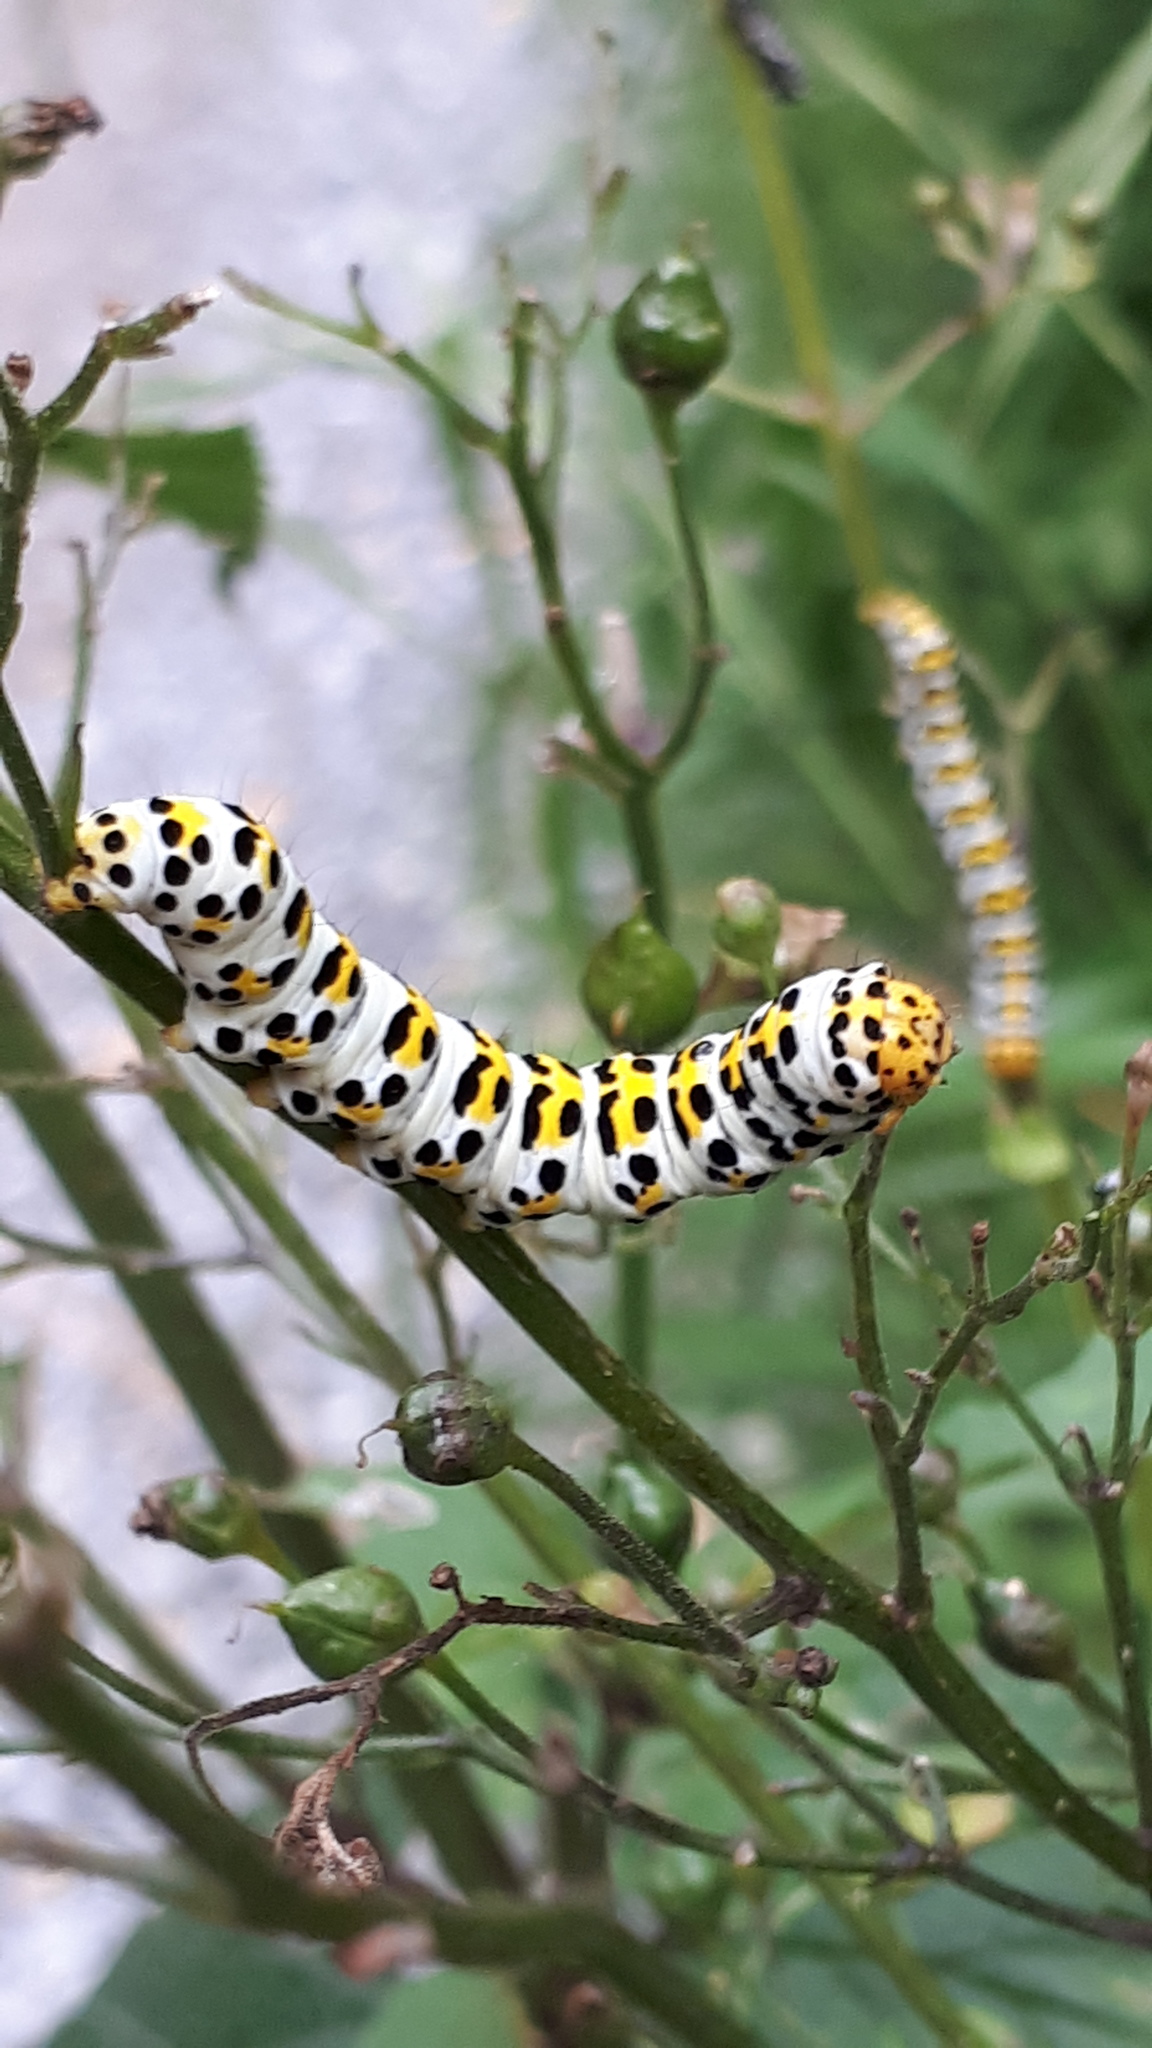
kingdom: Animalia
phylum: Arthropoda
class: Insecta
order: Lepidoptera
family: Noctuidae
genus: Shargacucullia
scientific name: Shargacucullia scrophulariae
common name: Water betony
